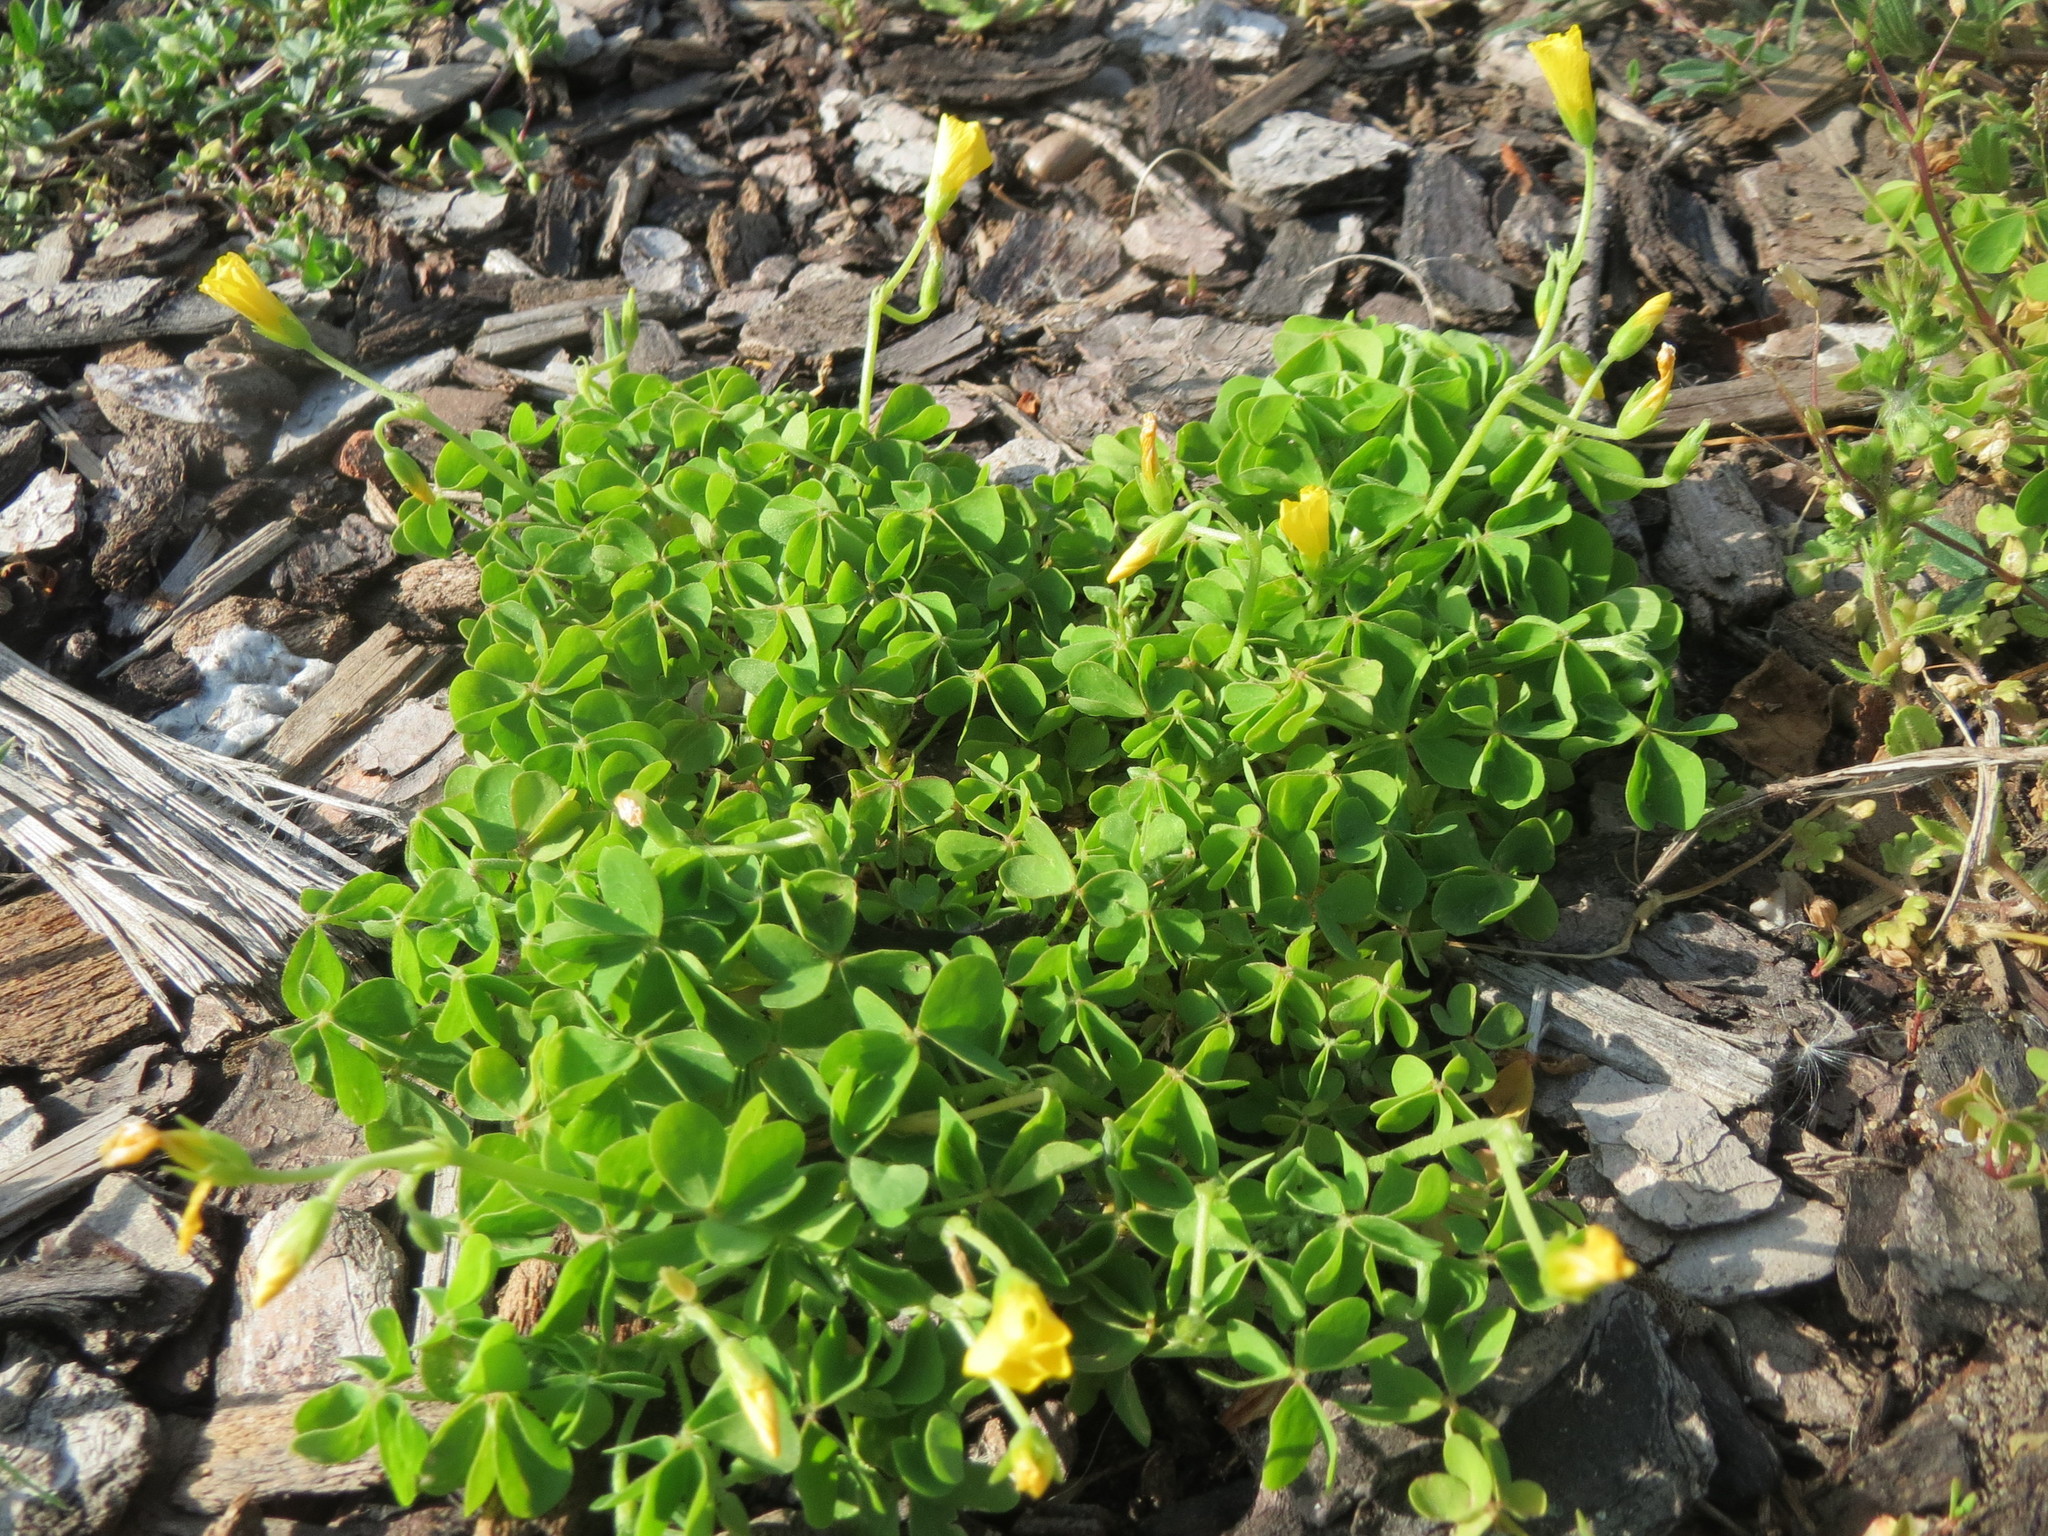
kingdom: Plantae
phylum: Tracheophyta
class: Magnoliopsida
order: Oxalidales
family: Oxalidaceae
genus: Oxalis
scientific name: Oxalis stricta
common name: Upright yellow-sorrel
